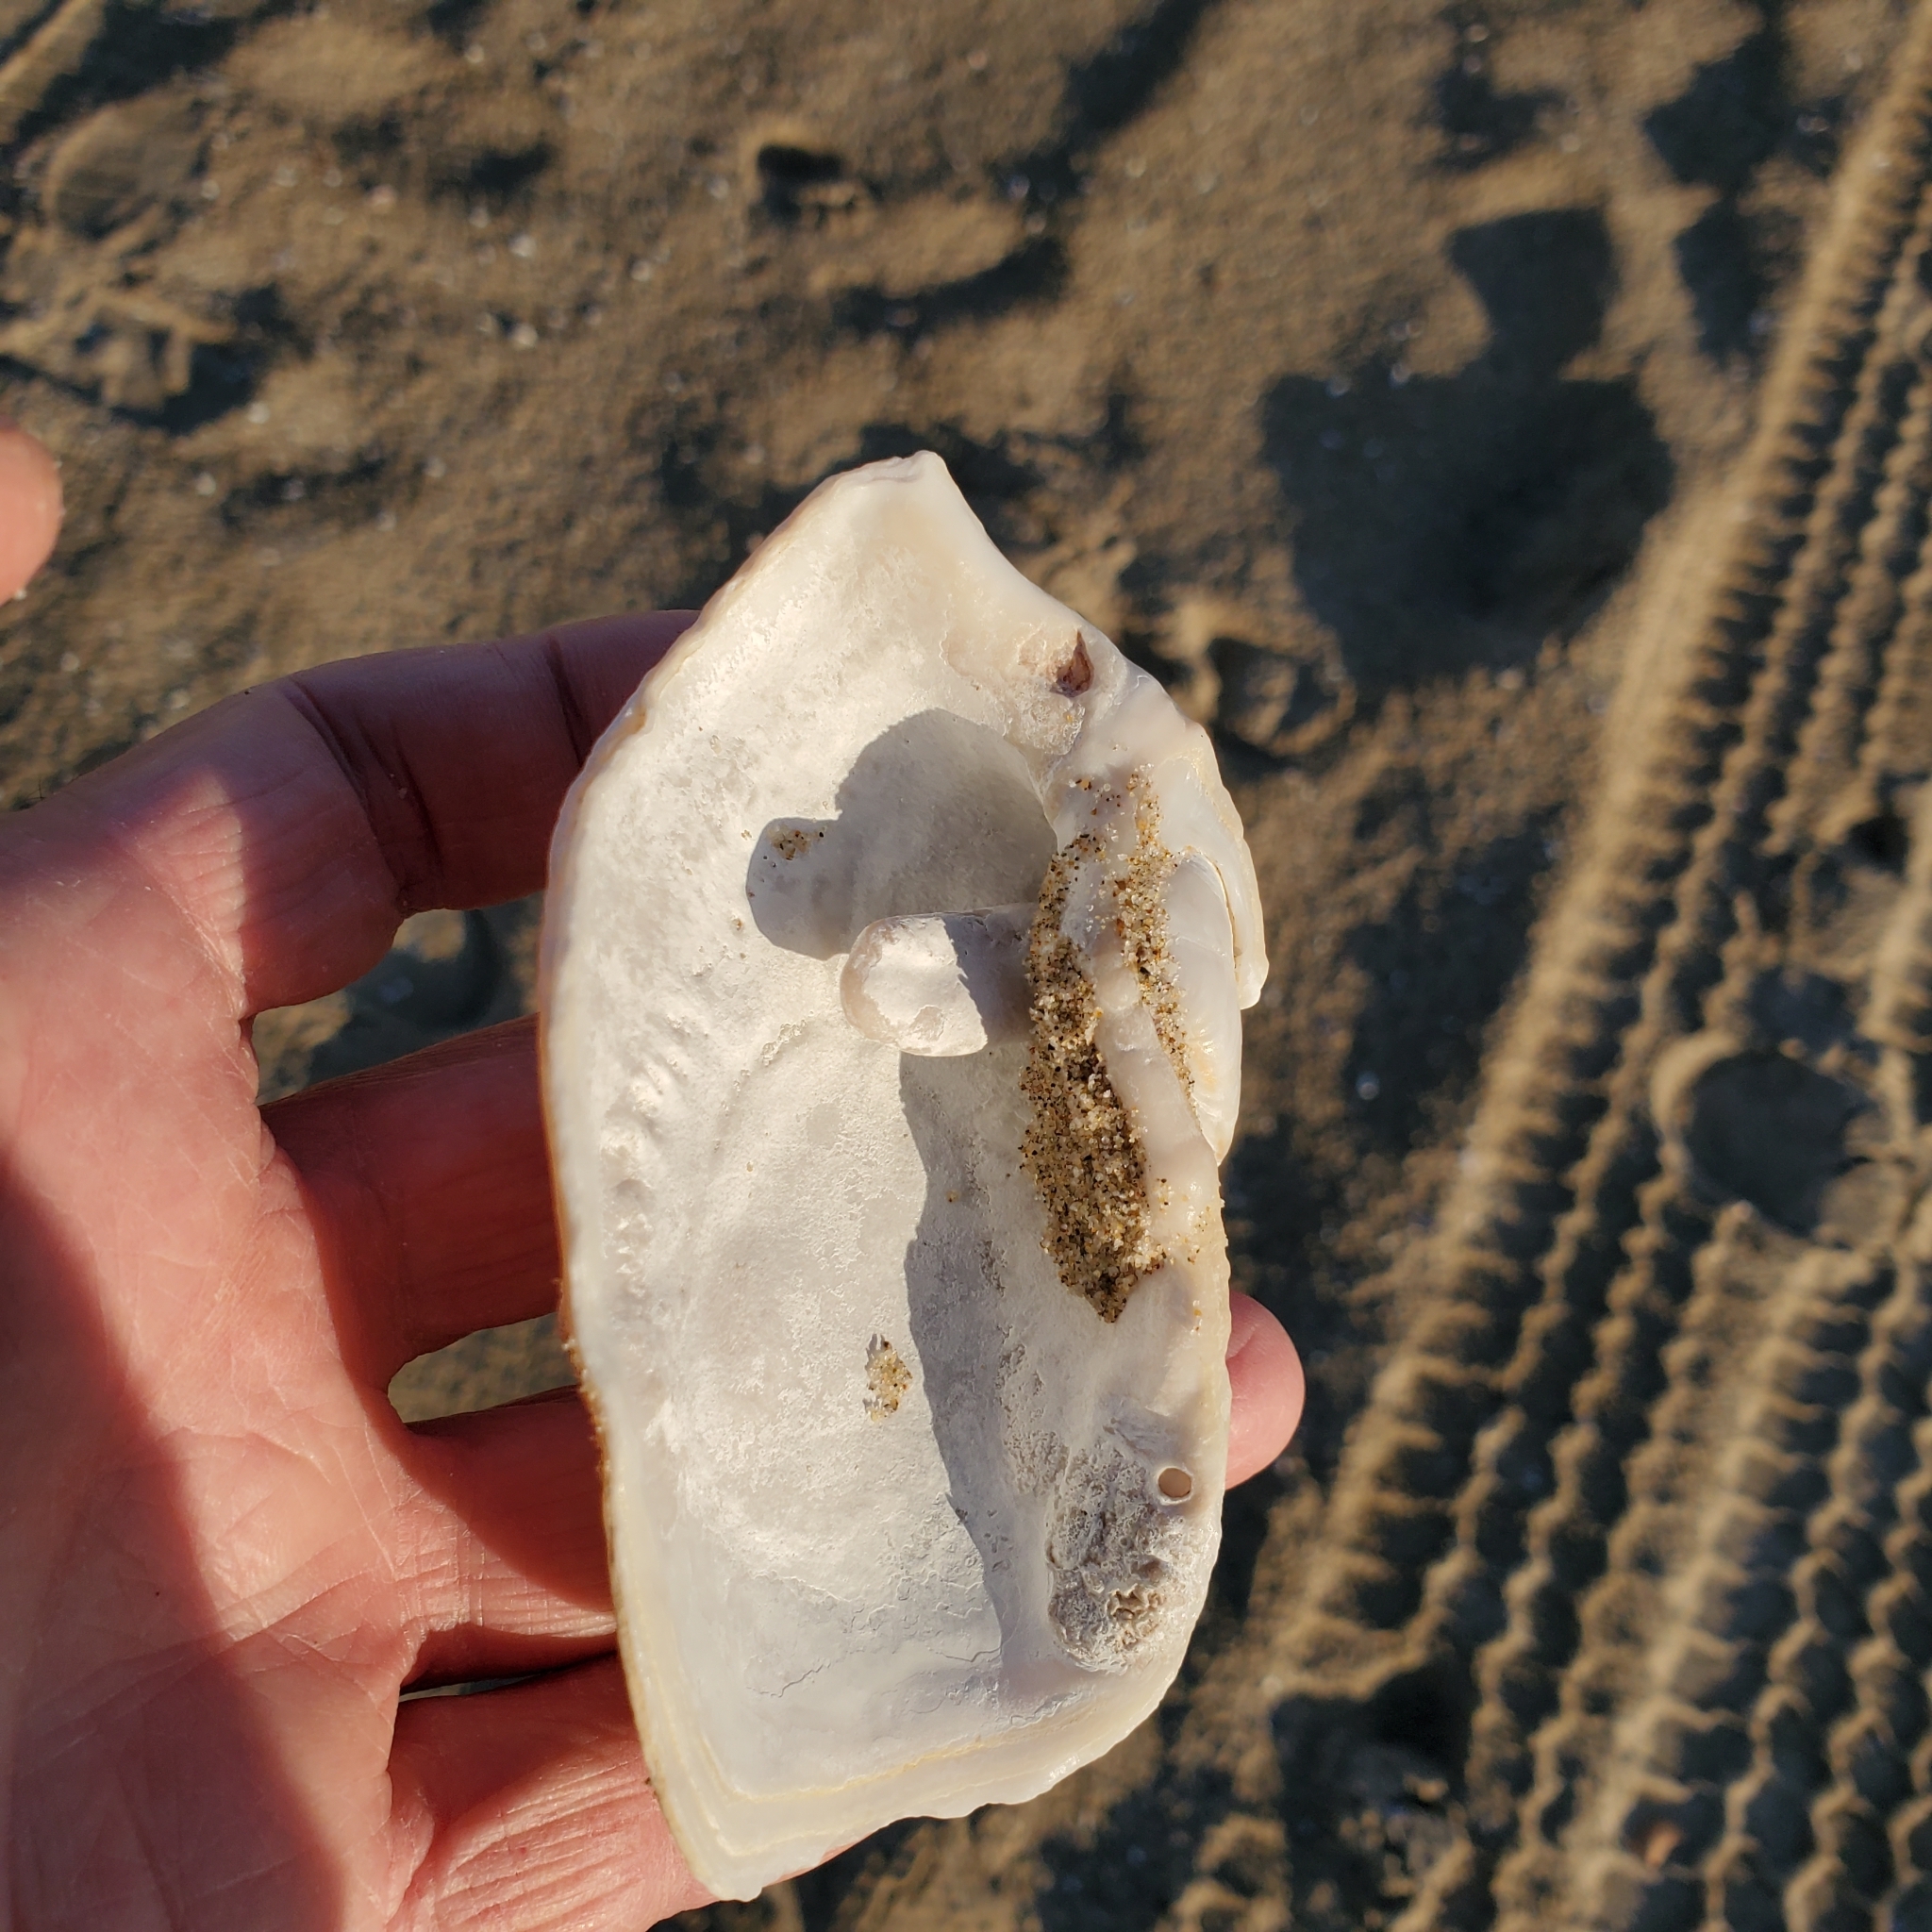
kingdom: Animalia
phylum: Mollusca
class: Bivalvia
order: Myida
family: Pholadidae
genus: Zirfaea
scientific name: Zirfaea pilsbryi
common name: Rough piddock
